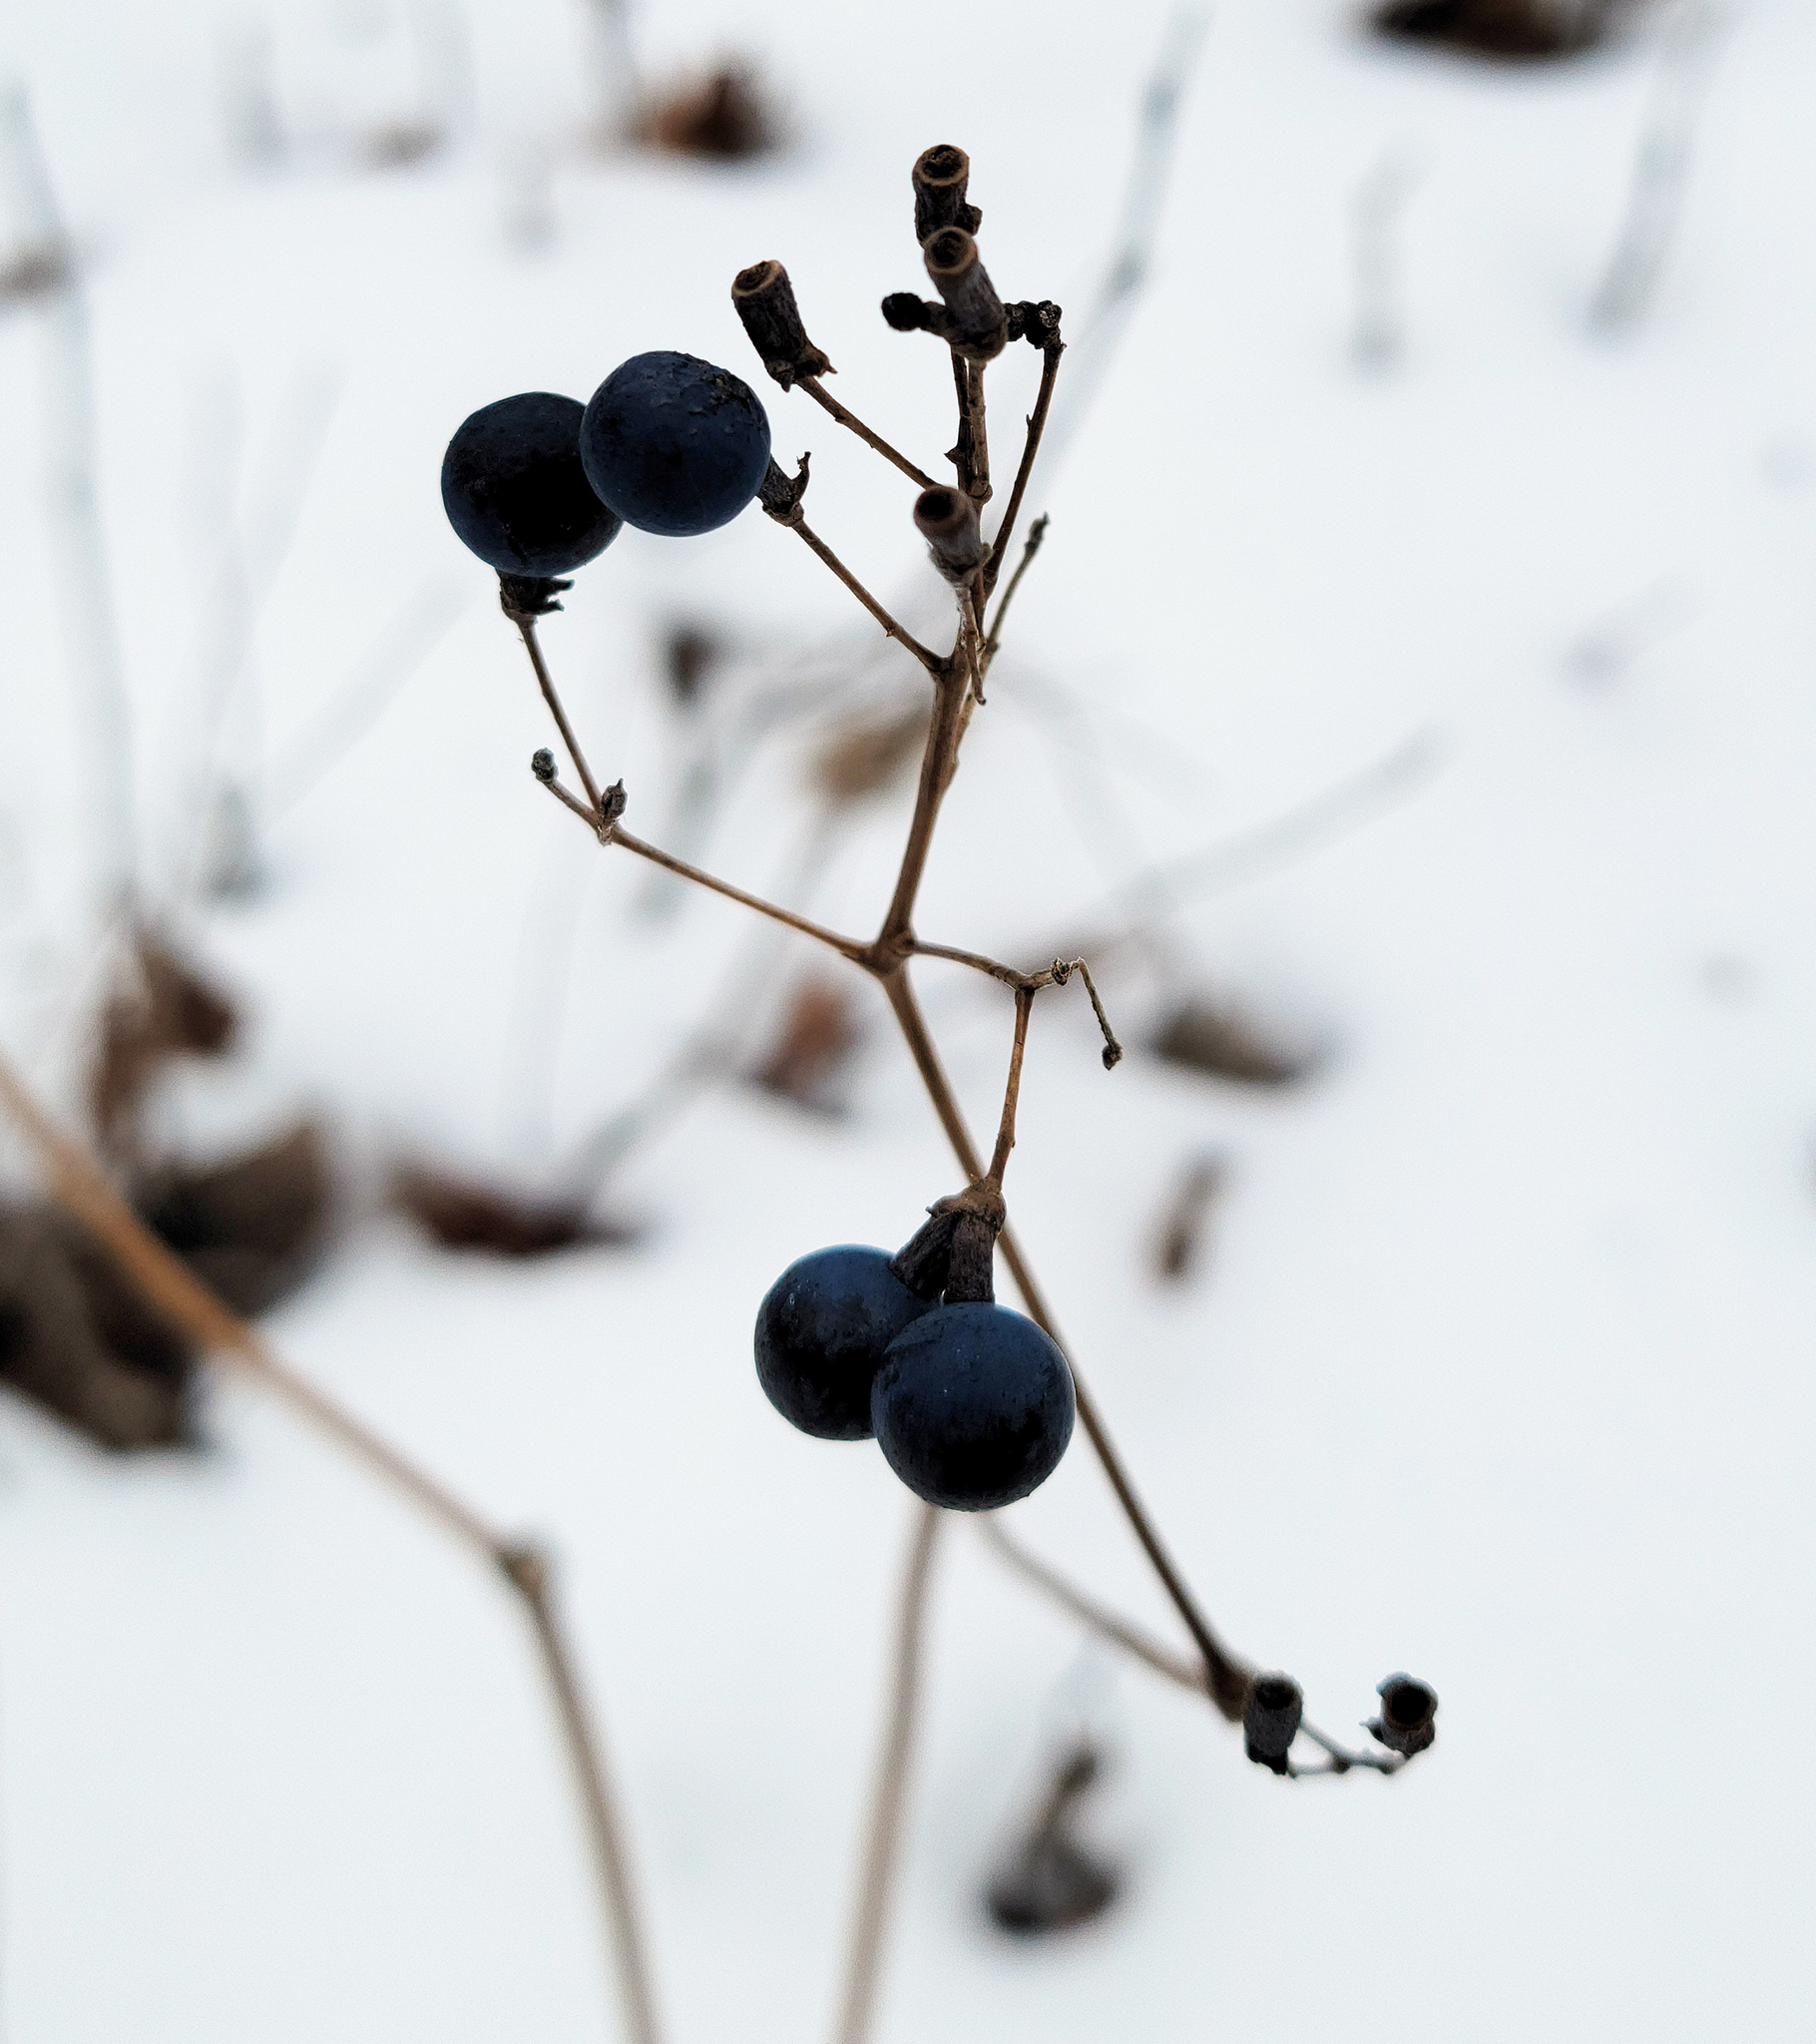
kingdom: Plantae
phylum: Tracheophyta
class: Magnoliopsida
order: Ranunculales
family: Berberidaceae
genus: Caulophyllum
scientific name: Caulophyllum thalictroides
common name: Blue cohosh
